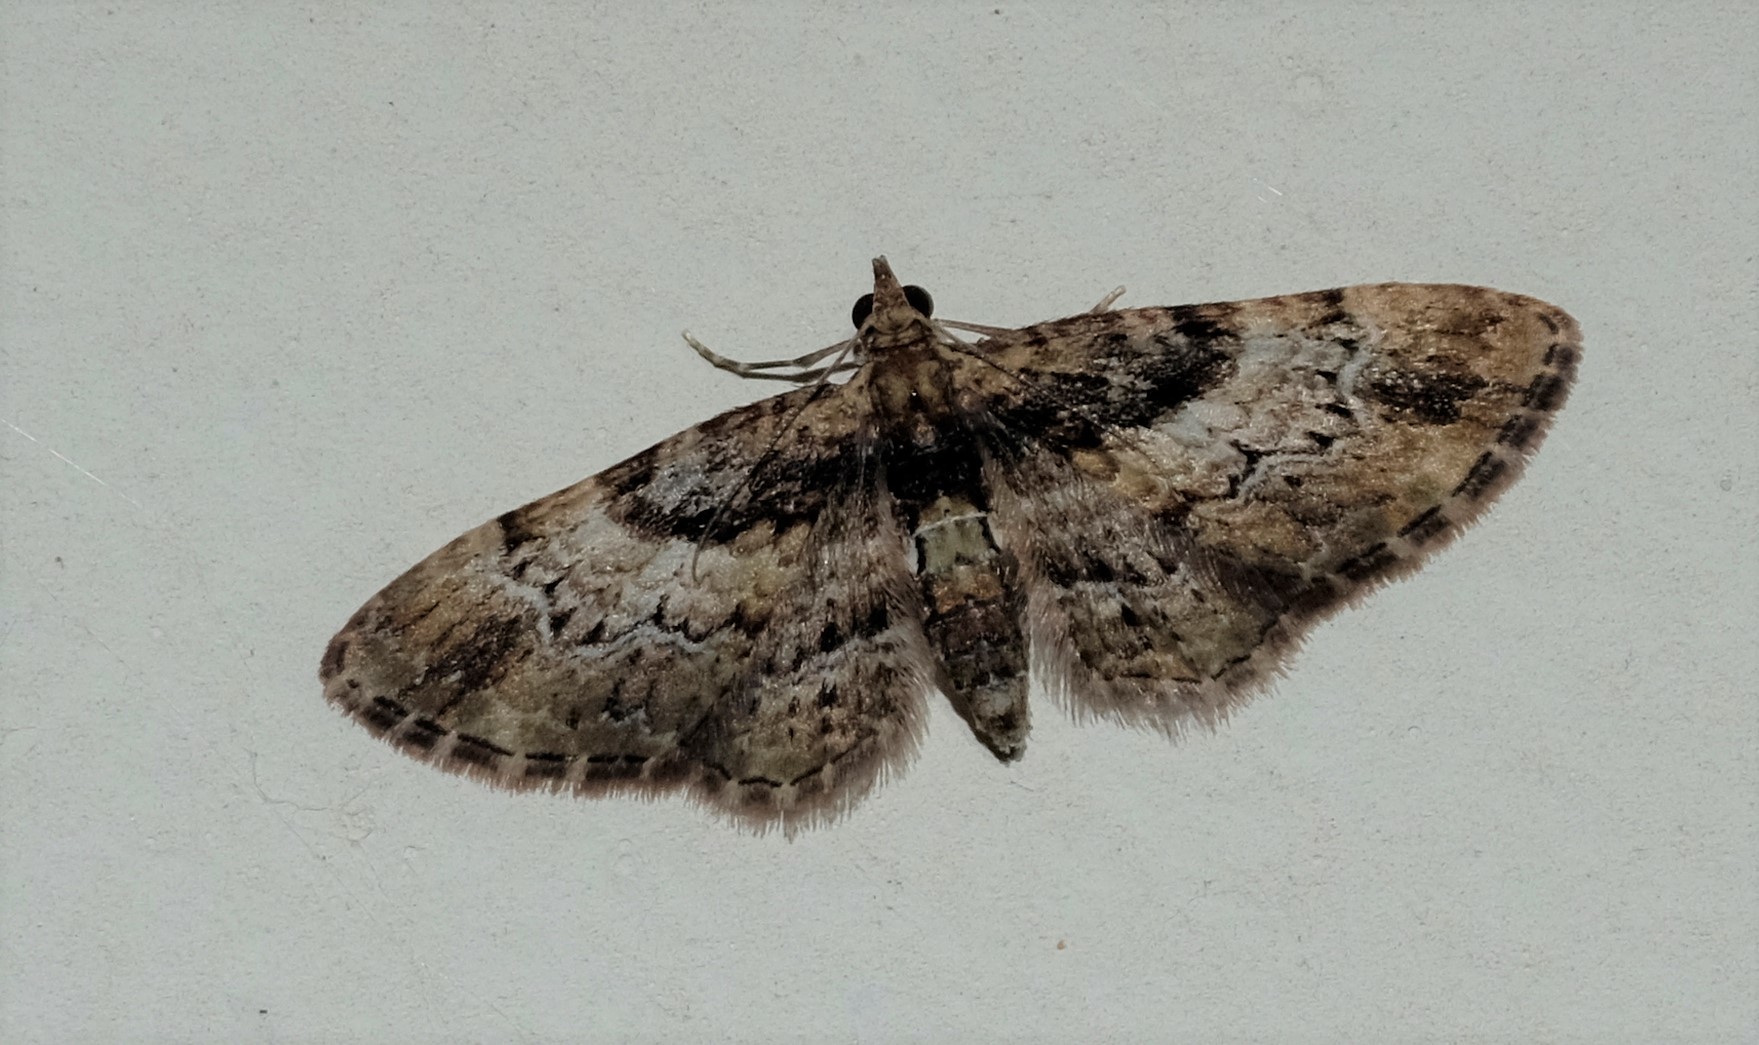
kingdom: Animalia
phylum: Arthropoda
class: Insecta
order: Lepidoptera
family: Geometridae
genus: Chloroclystis
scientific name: Chloroclystis approximata
